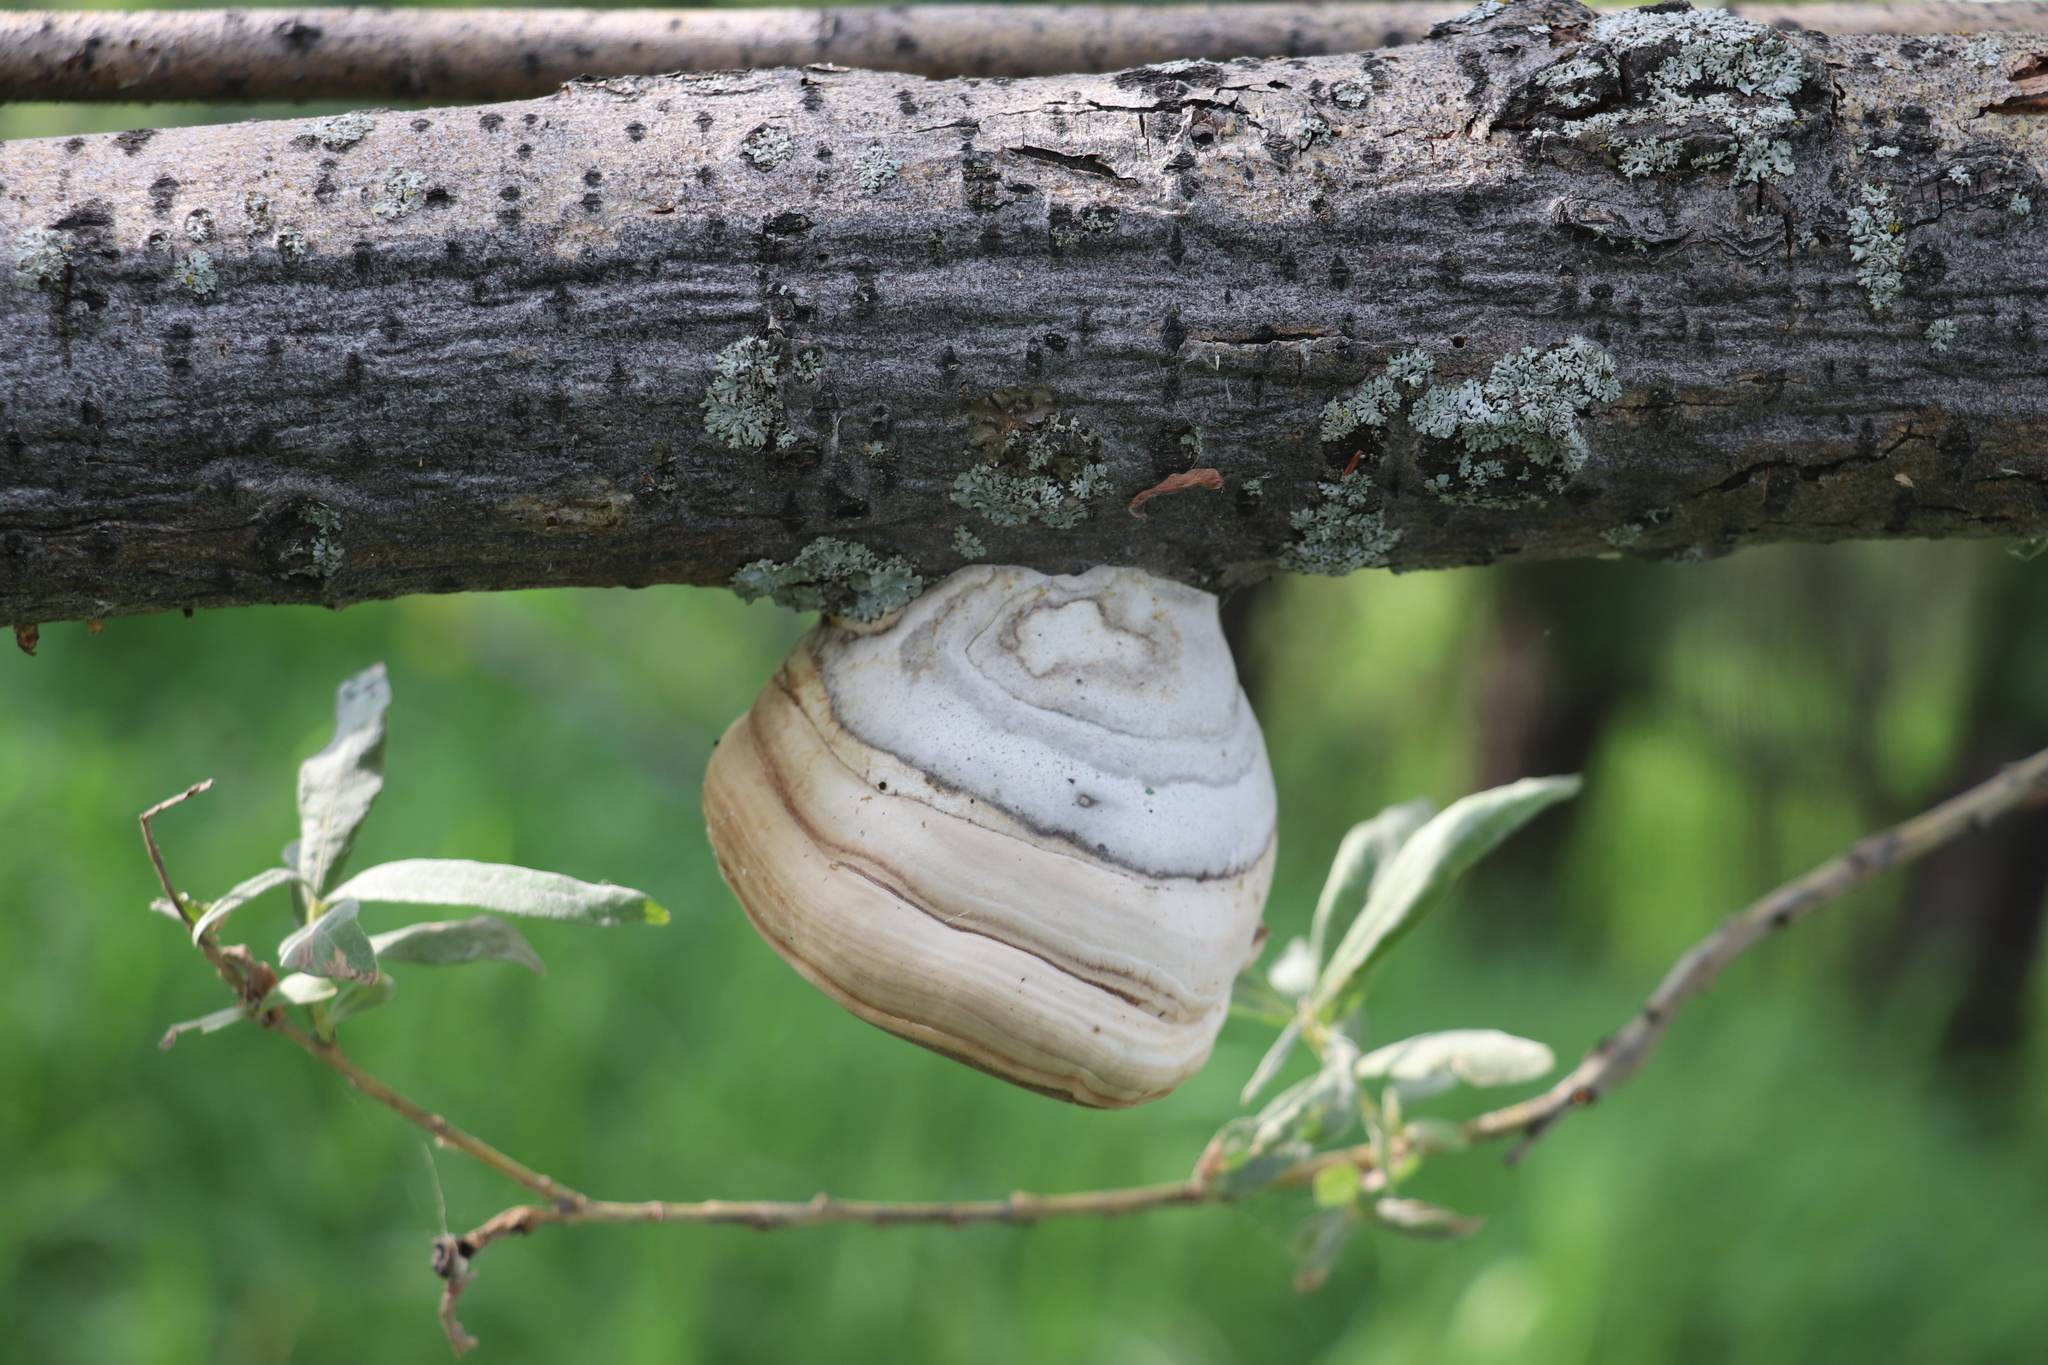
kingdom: Fungi
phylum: Basidiomycota
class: Agaricomycetes
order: Polyporales
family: Polyporaceae
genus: Fomes
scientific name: Fomes fomentarius
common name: Hoof fungus
